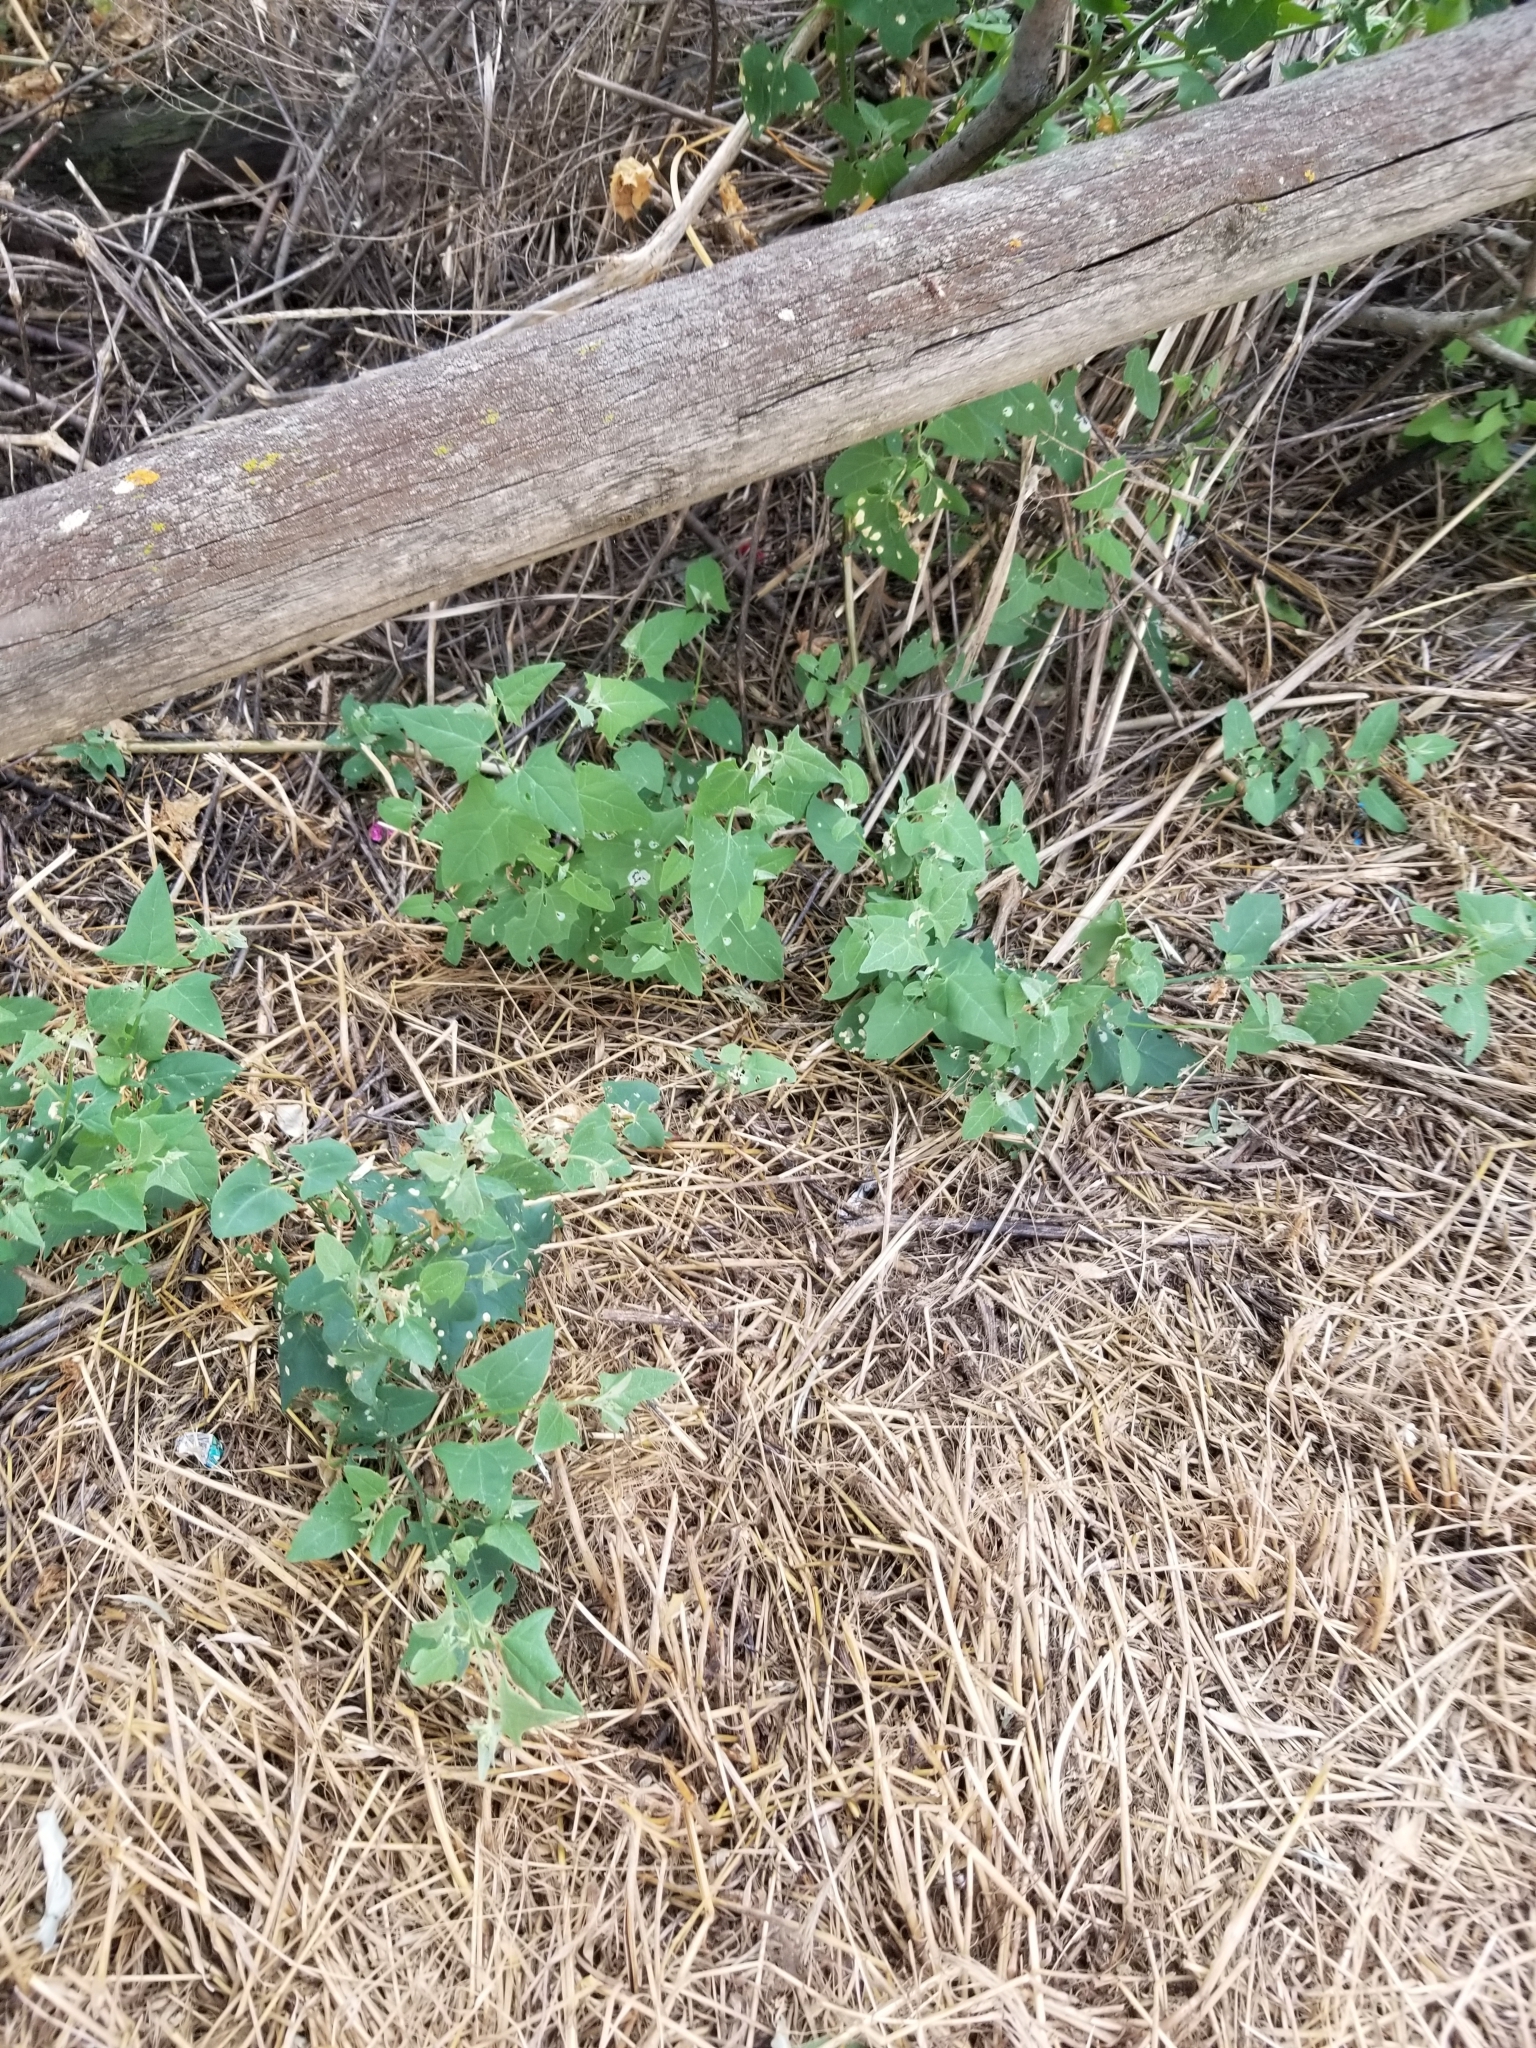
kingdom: Plantae
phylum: Tracheophyta
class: Magnoliopsida
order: Caryophyllales
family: Amaranthaceae
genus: Chenopodium
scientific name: Chenopodium album
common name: Fat-hen
